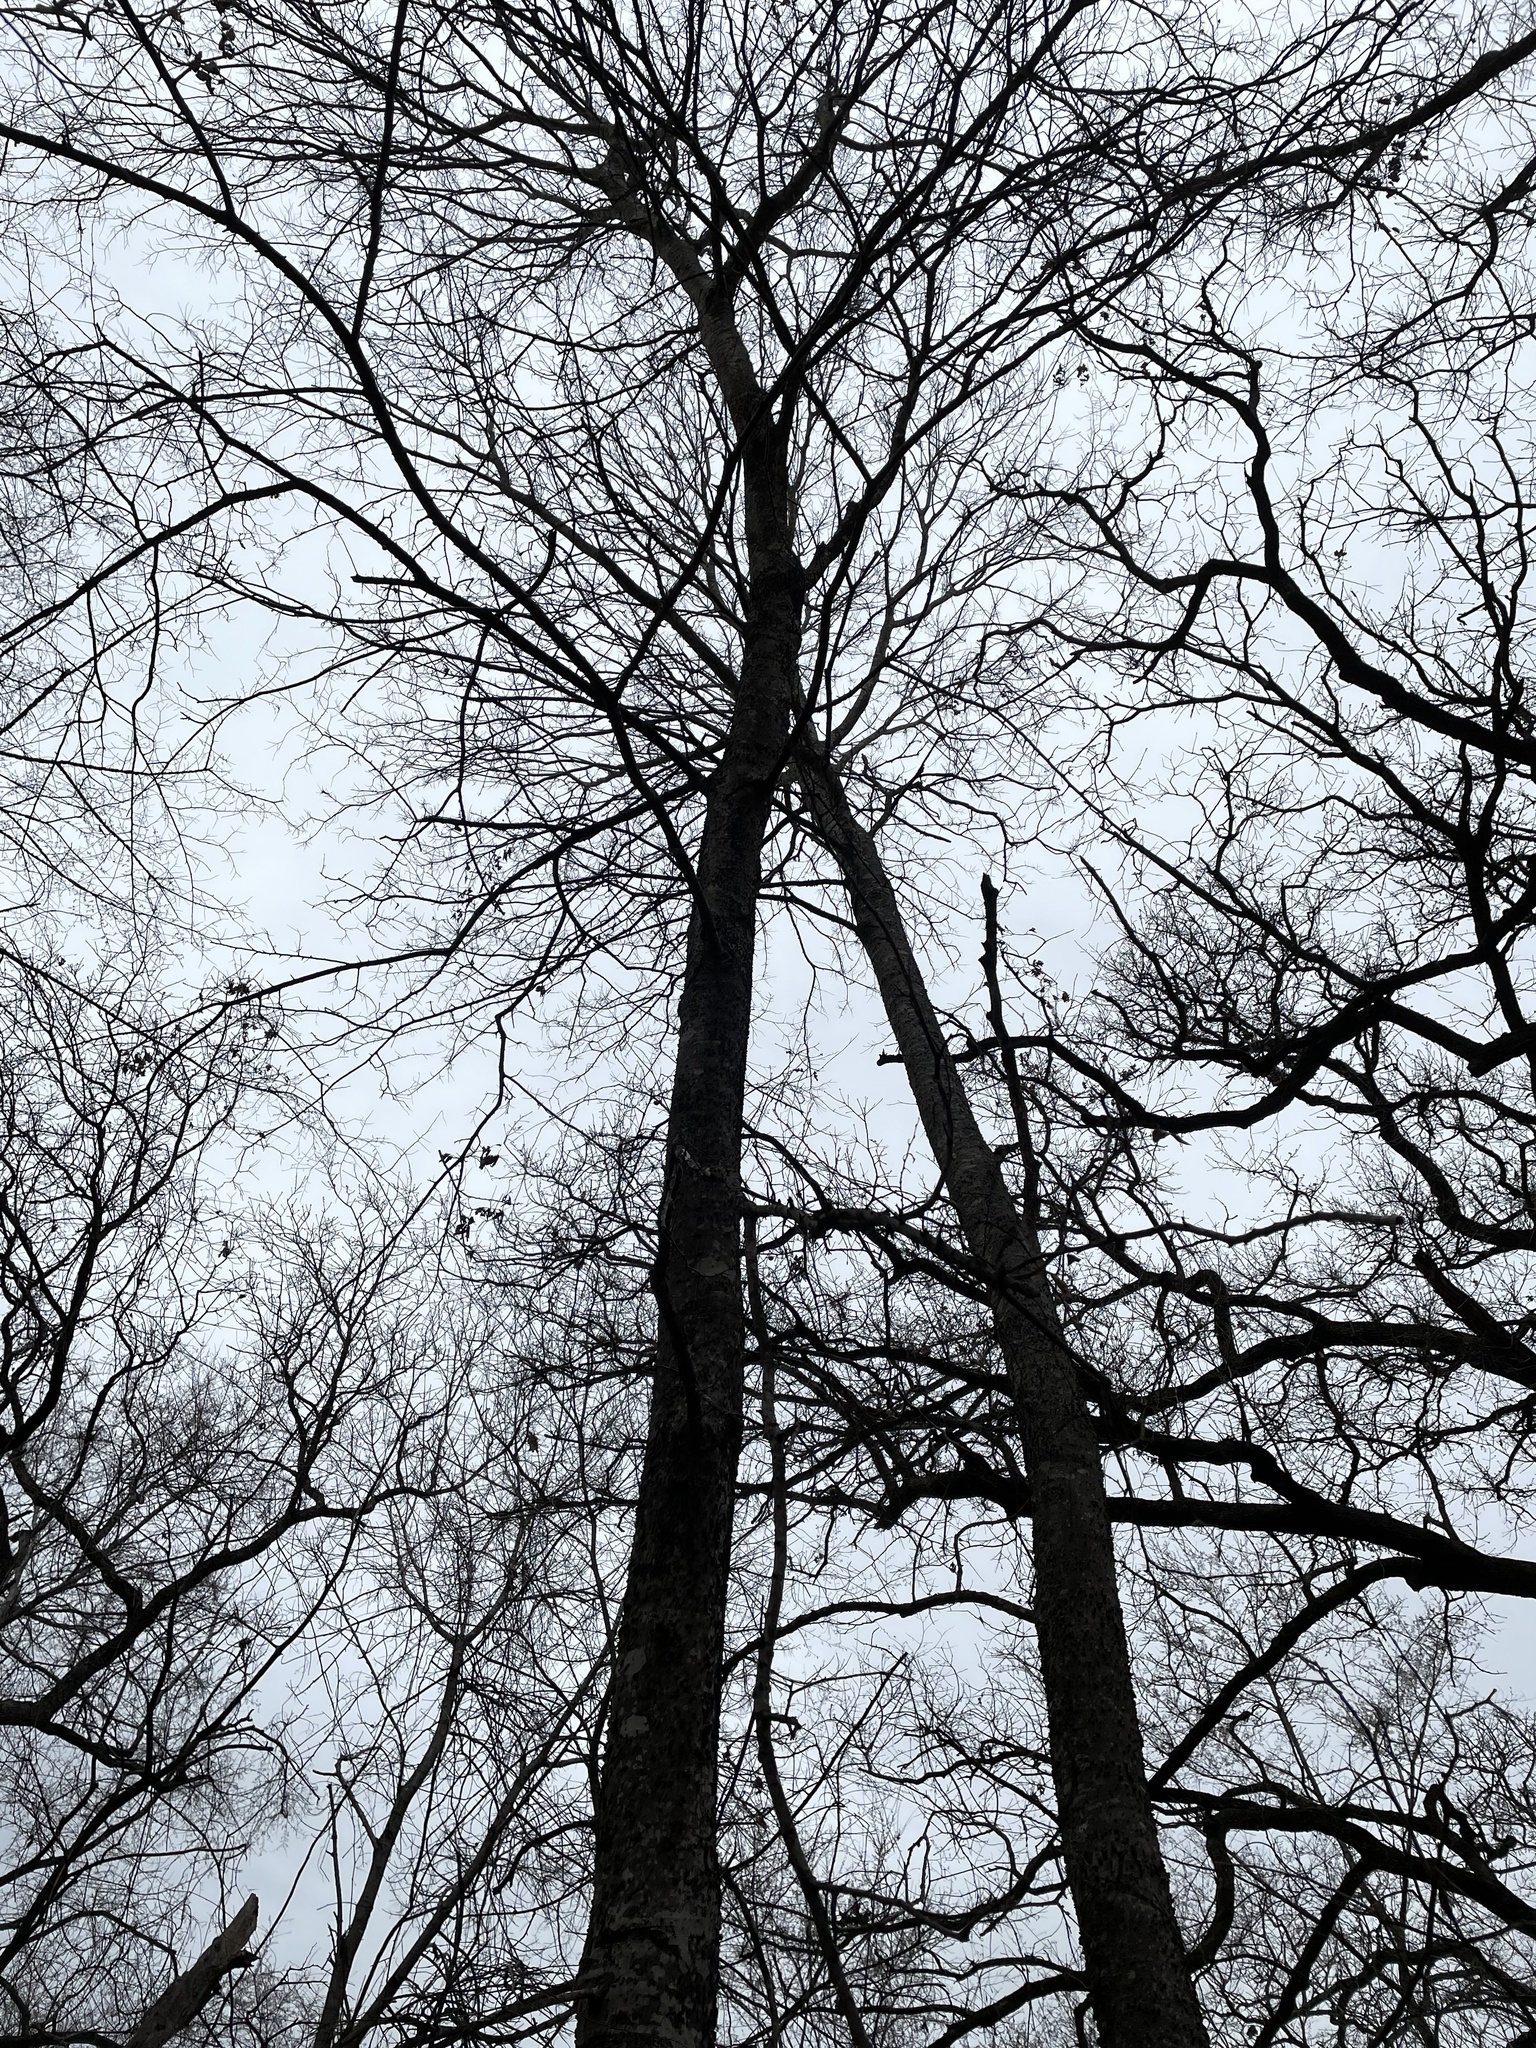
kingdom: Plantae
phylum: Tracheophyta
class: Magnoliopsida
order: Rosales
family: Cannabaceae
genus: Celtis
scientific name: Celtis laevigata
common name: Sugarberry
